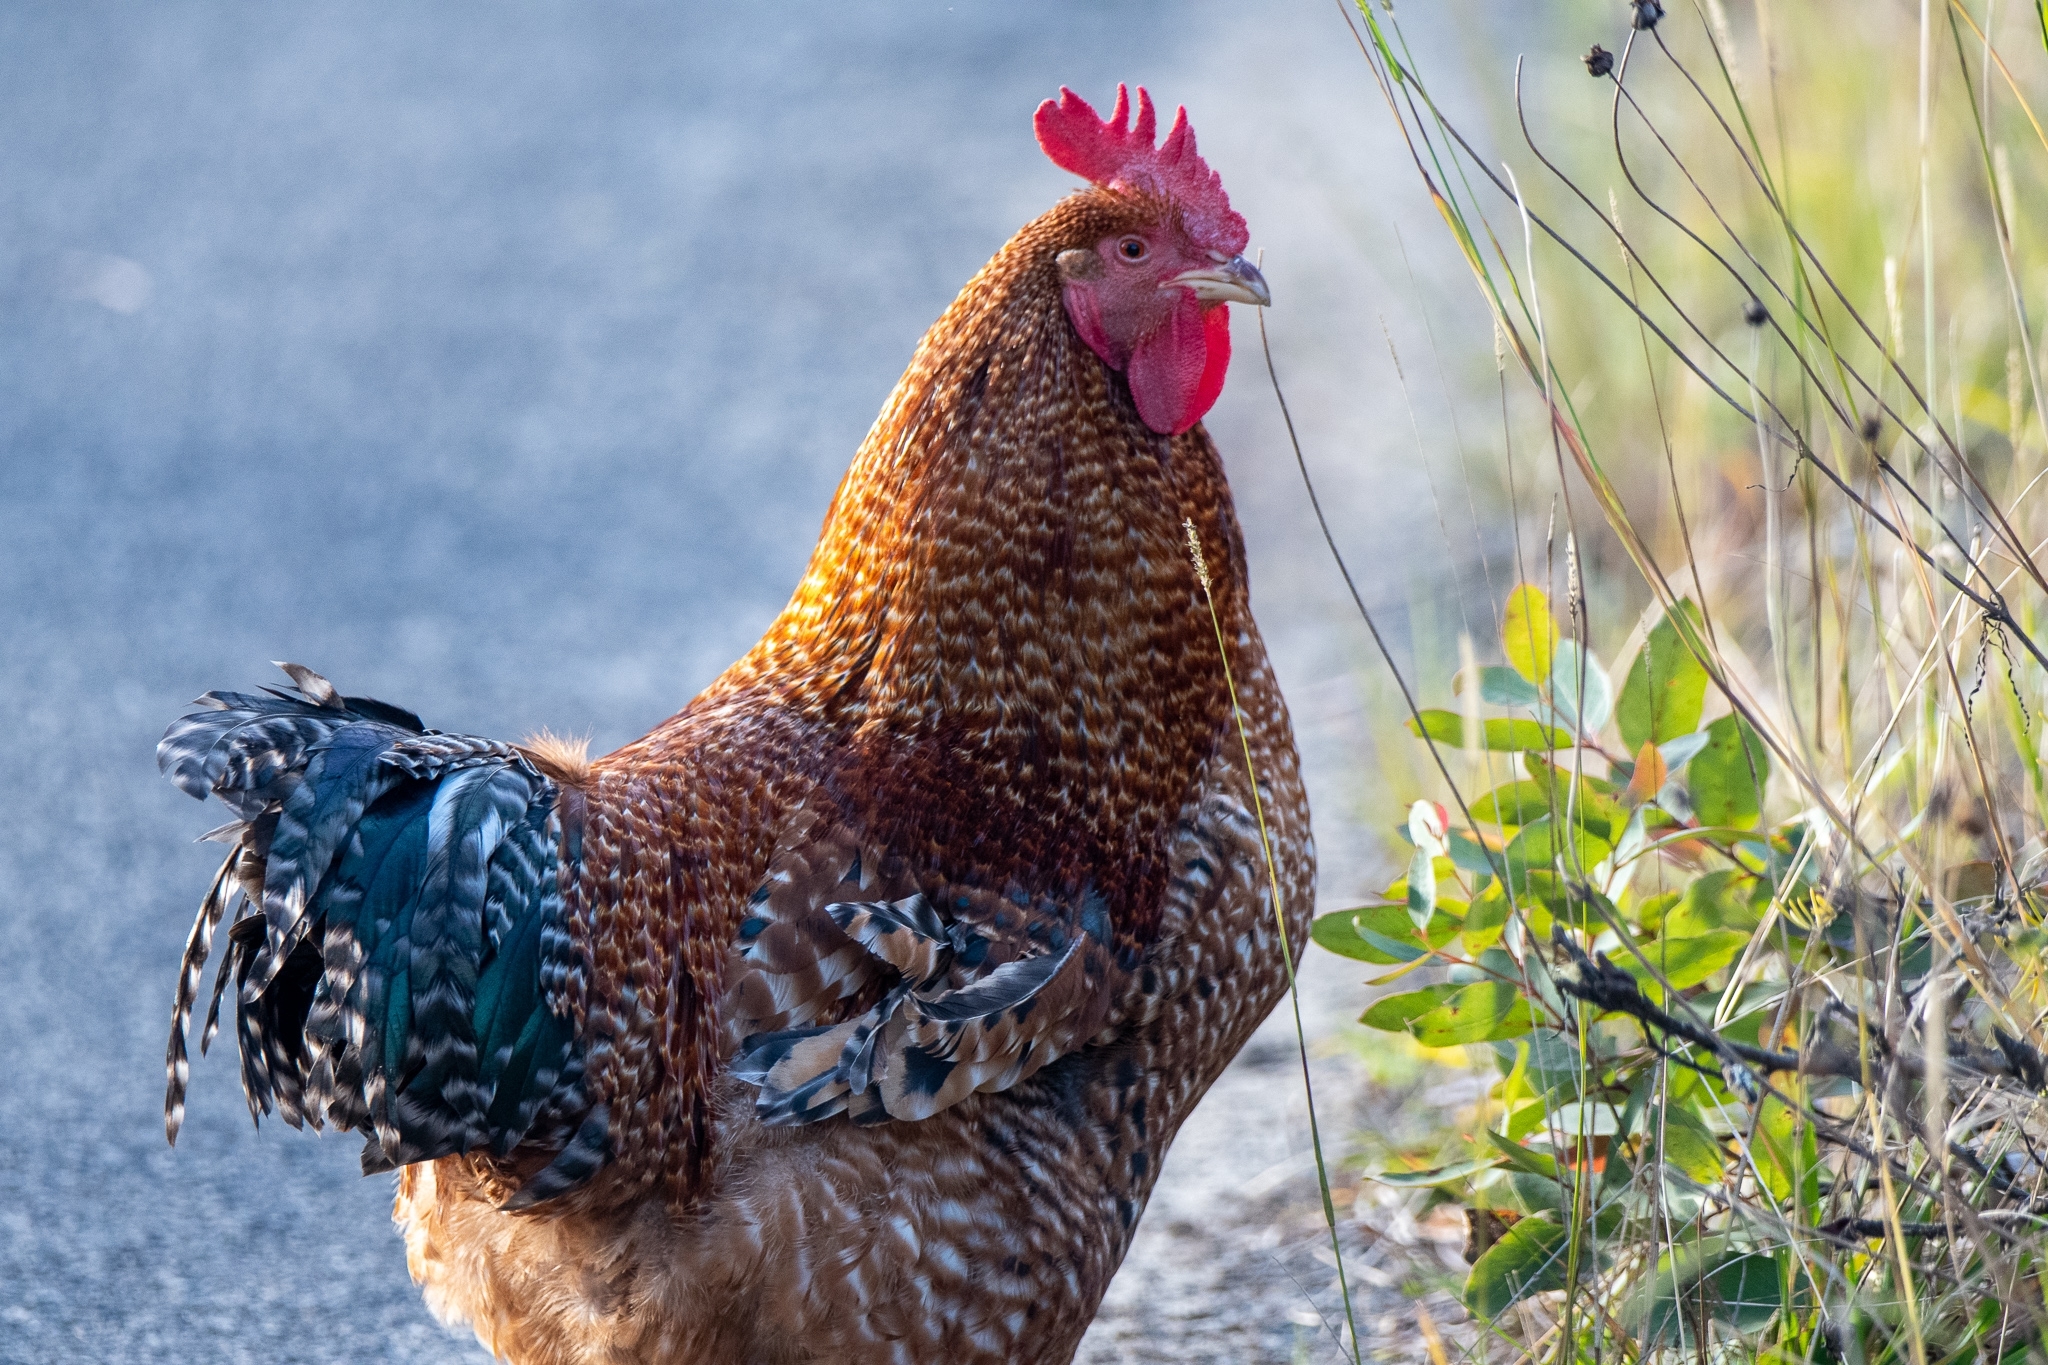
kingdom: Animalia
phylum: Chordata
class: Aves
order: Galliformes
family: Phasianidae
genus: Gallus
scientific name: Gallus gallus
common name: Red junglefowl
